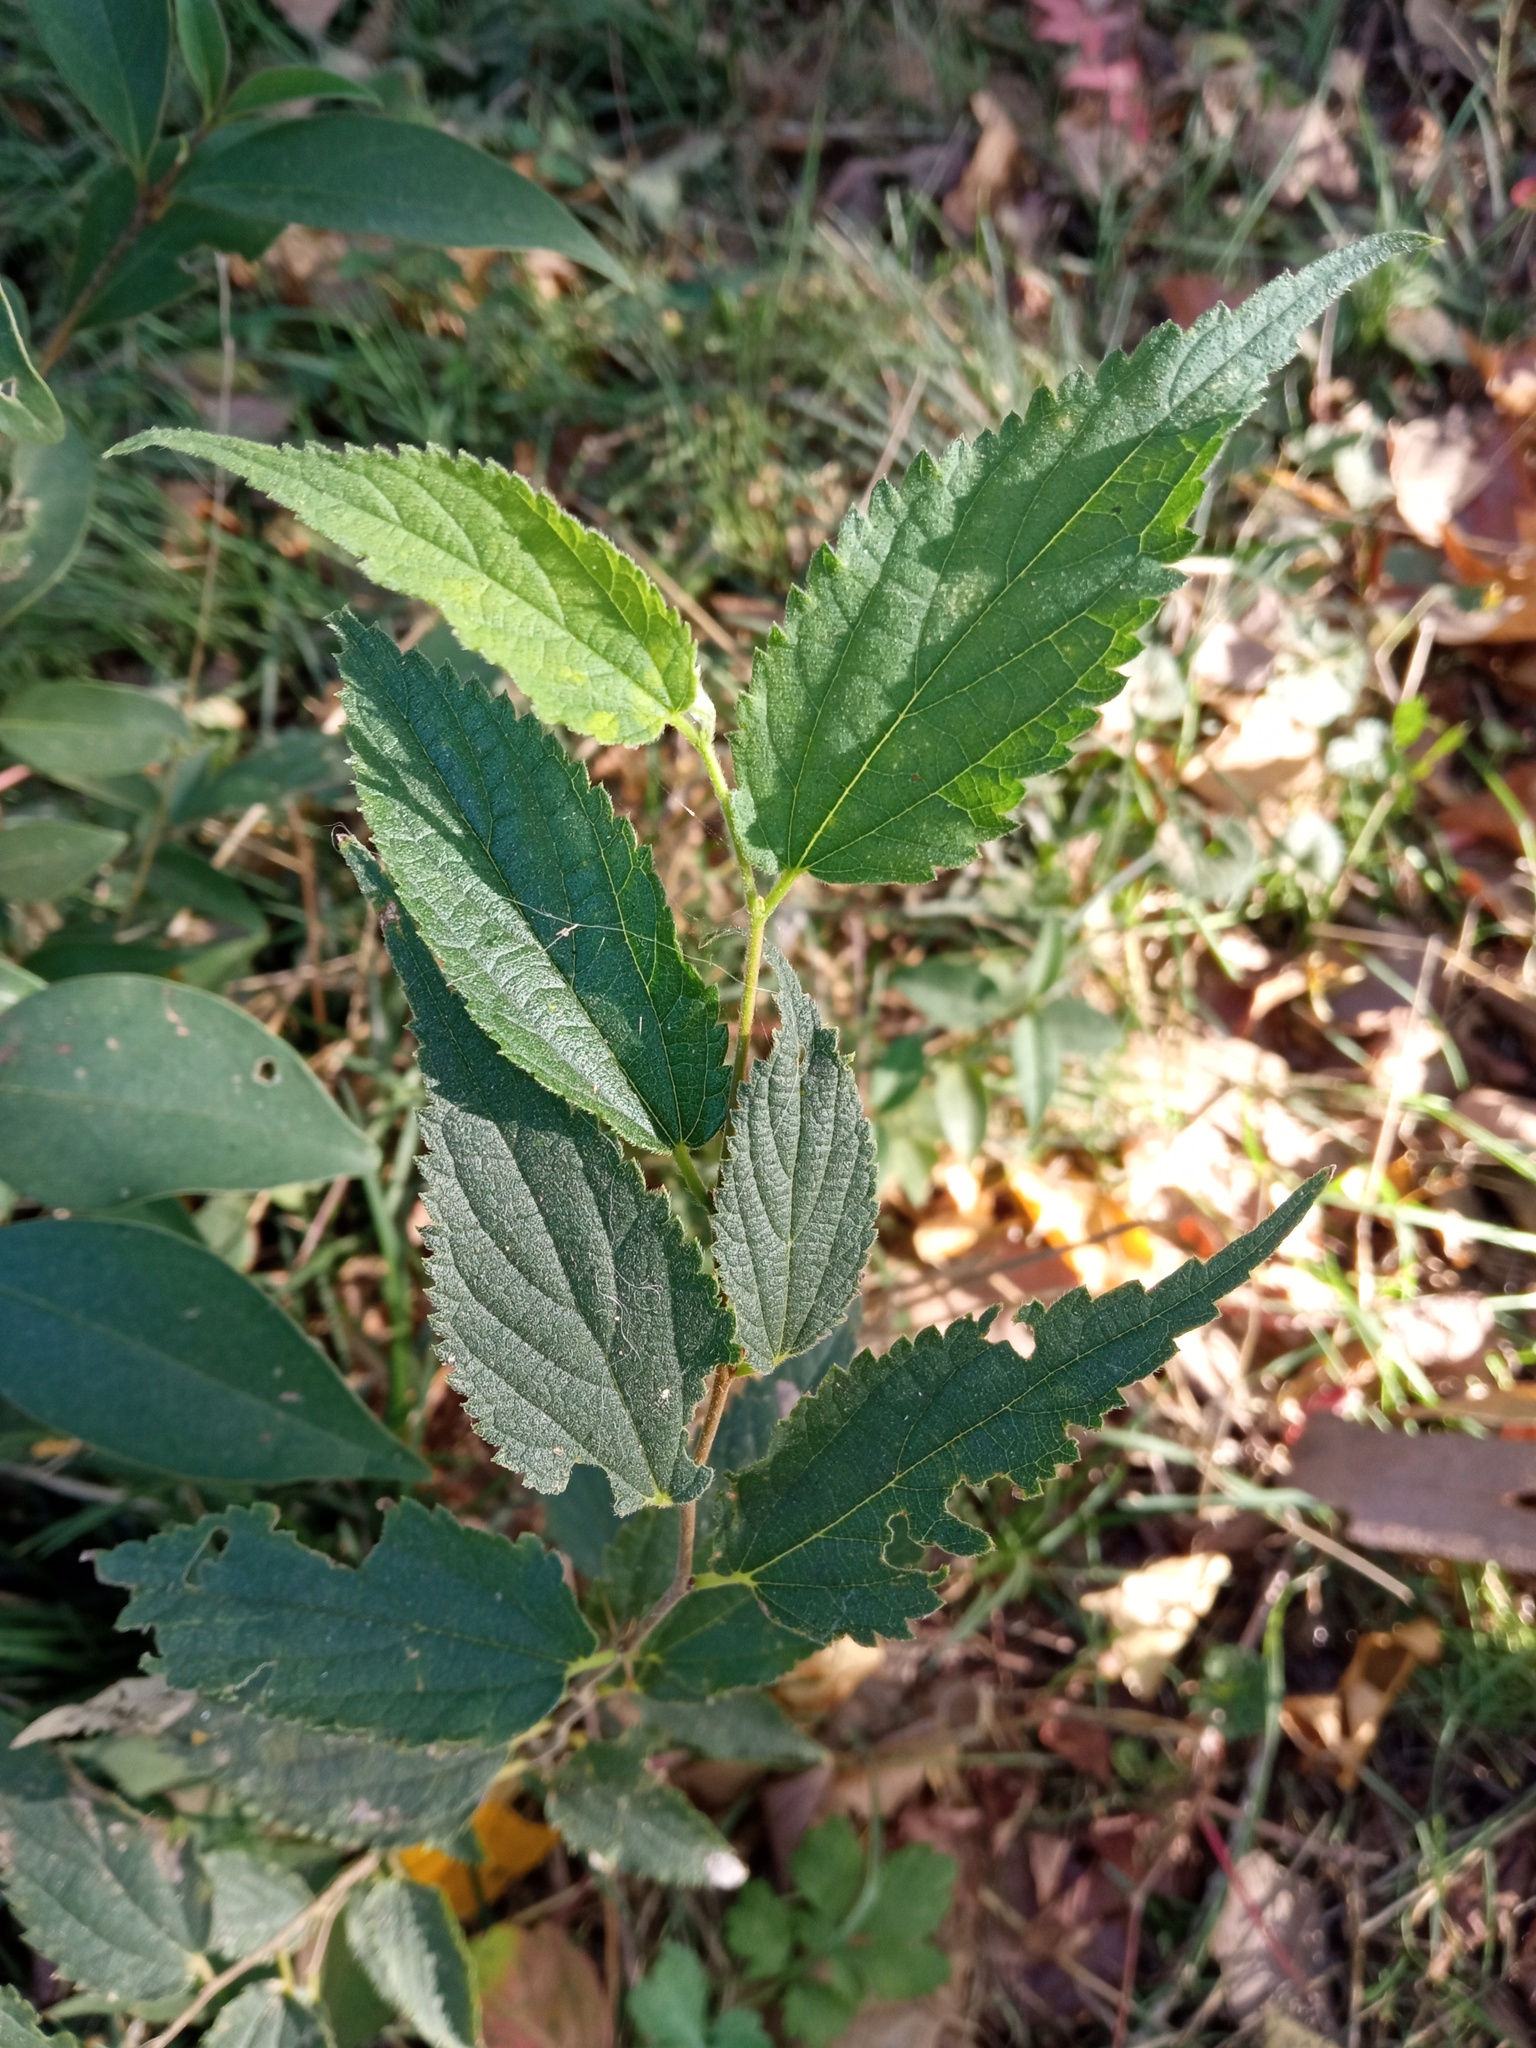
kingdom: Plantae
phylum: Tracheophyta
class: Magnoliopsida
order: Rosales
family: Cannabaceae
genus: Celtis
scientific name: Celtis australis
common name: European hackberry
